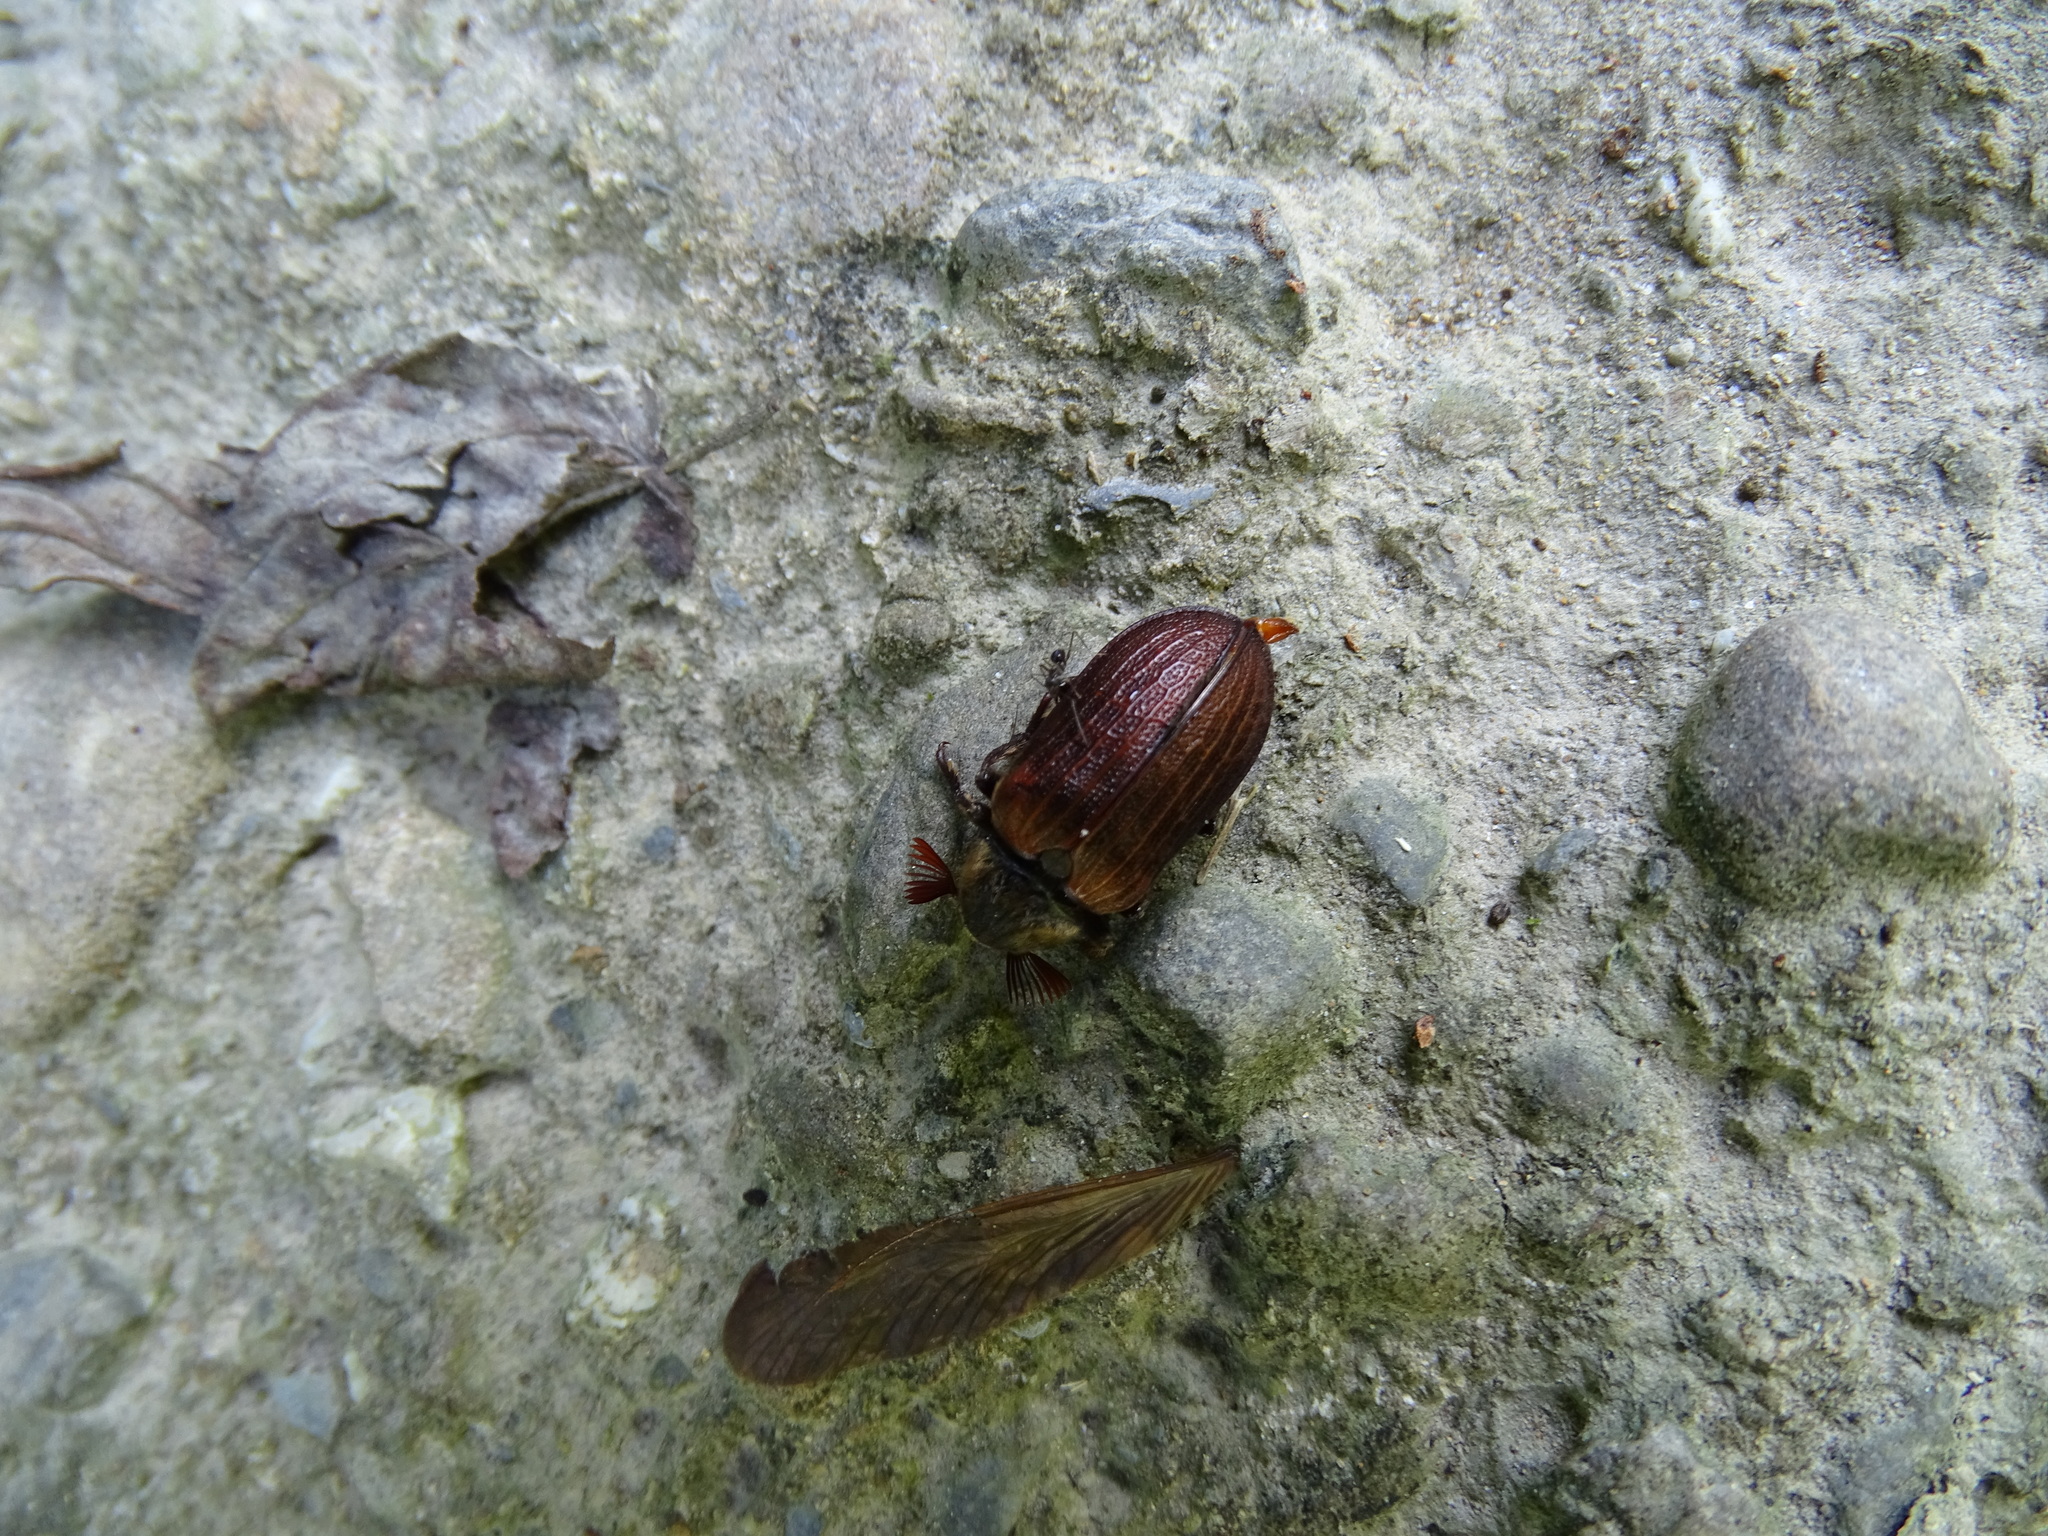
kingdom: Animalia
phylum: Arthropoda
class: Insecta
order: Coleoptera
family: Rhipiceridae
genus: Sandalus
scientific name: Sandalus sauteri
